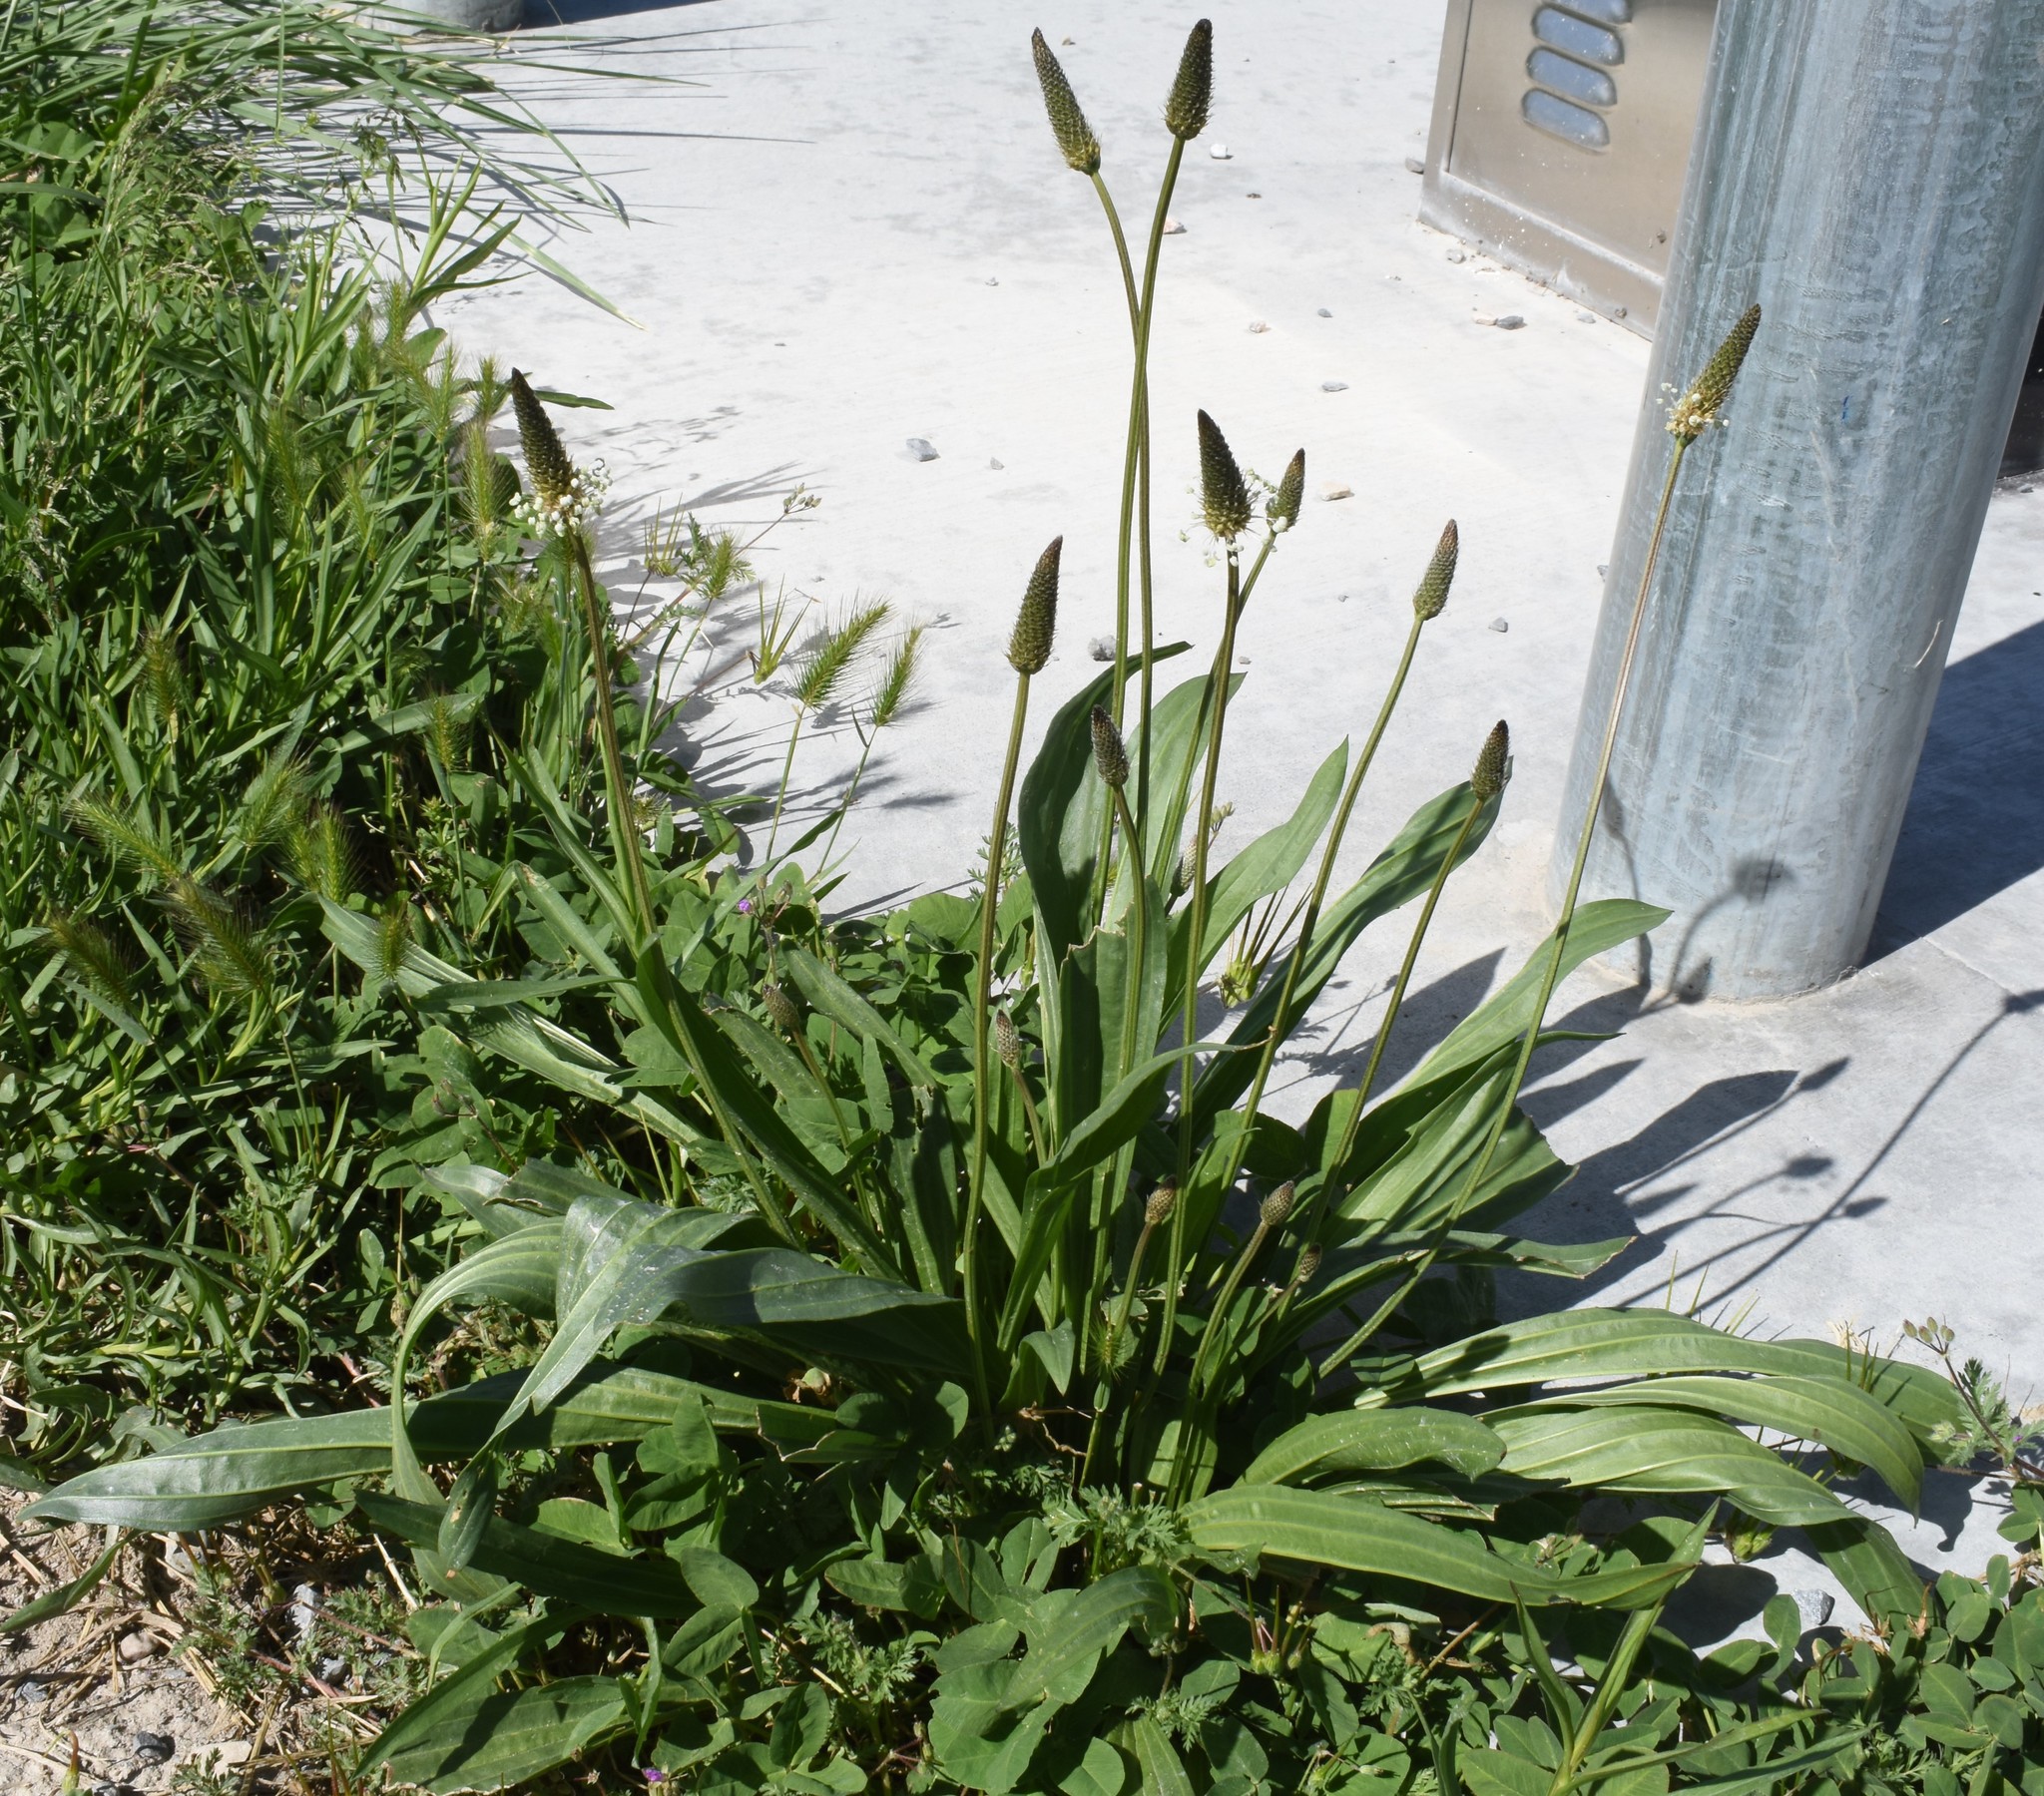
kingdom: Plantae
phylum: Tracheophyta
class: Magnoliopsida
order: Lamiales
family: Plantaginaceae
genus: Plantago
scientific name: Plantago lanceolata
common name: Ribwort plantain
